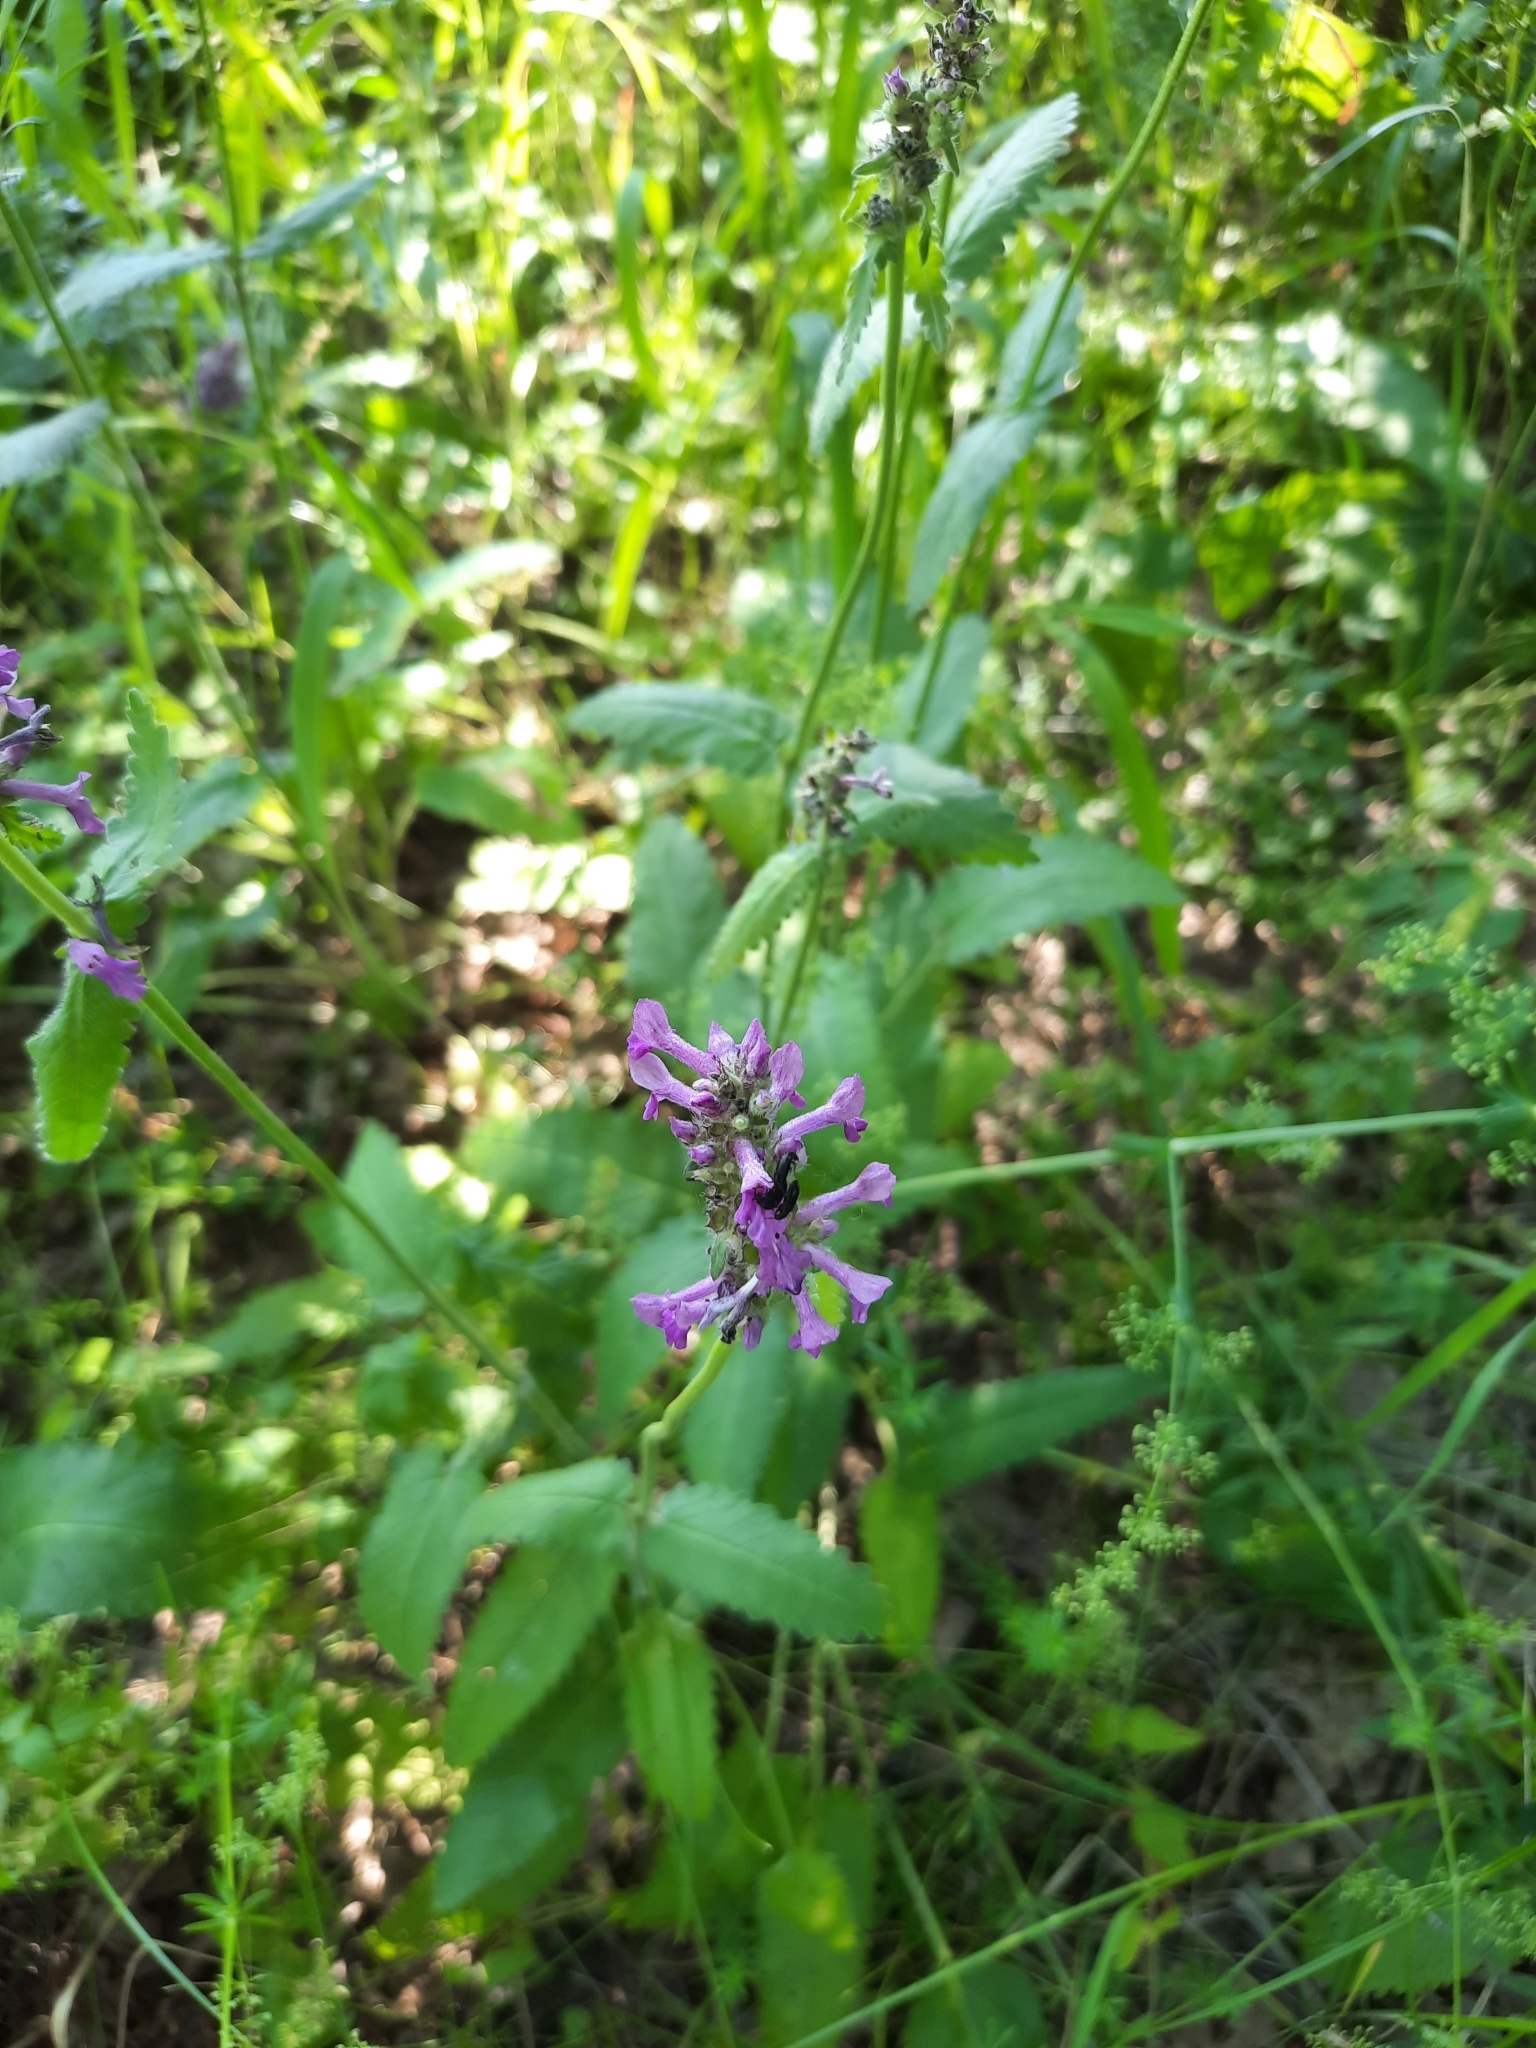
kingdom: Plantae
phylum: Tracheophyta
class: Magnoliopsida
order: Lamiales
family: Lamiaceae
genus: Betonica
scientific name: Betonica officinalis
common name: Bishop's-wort
